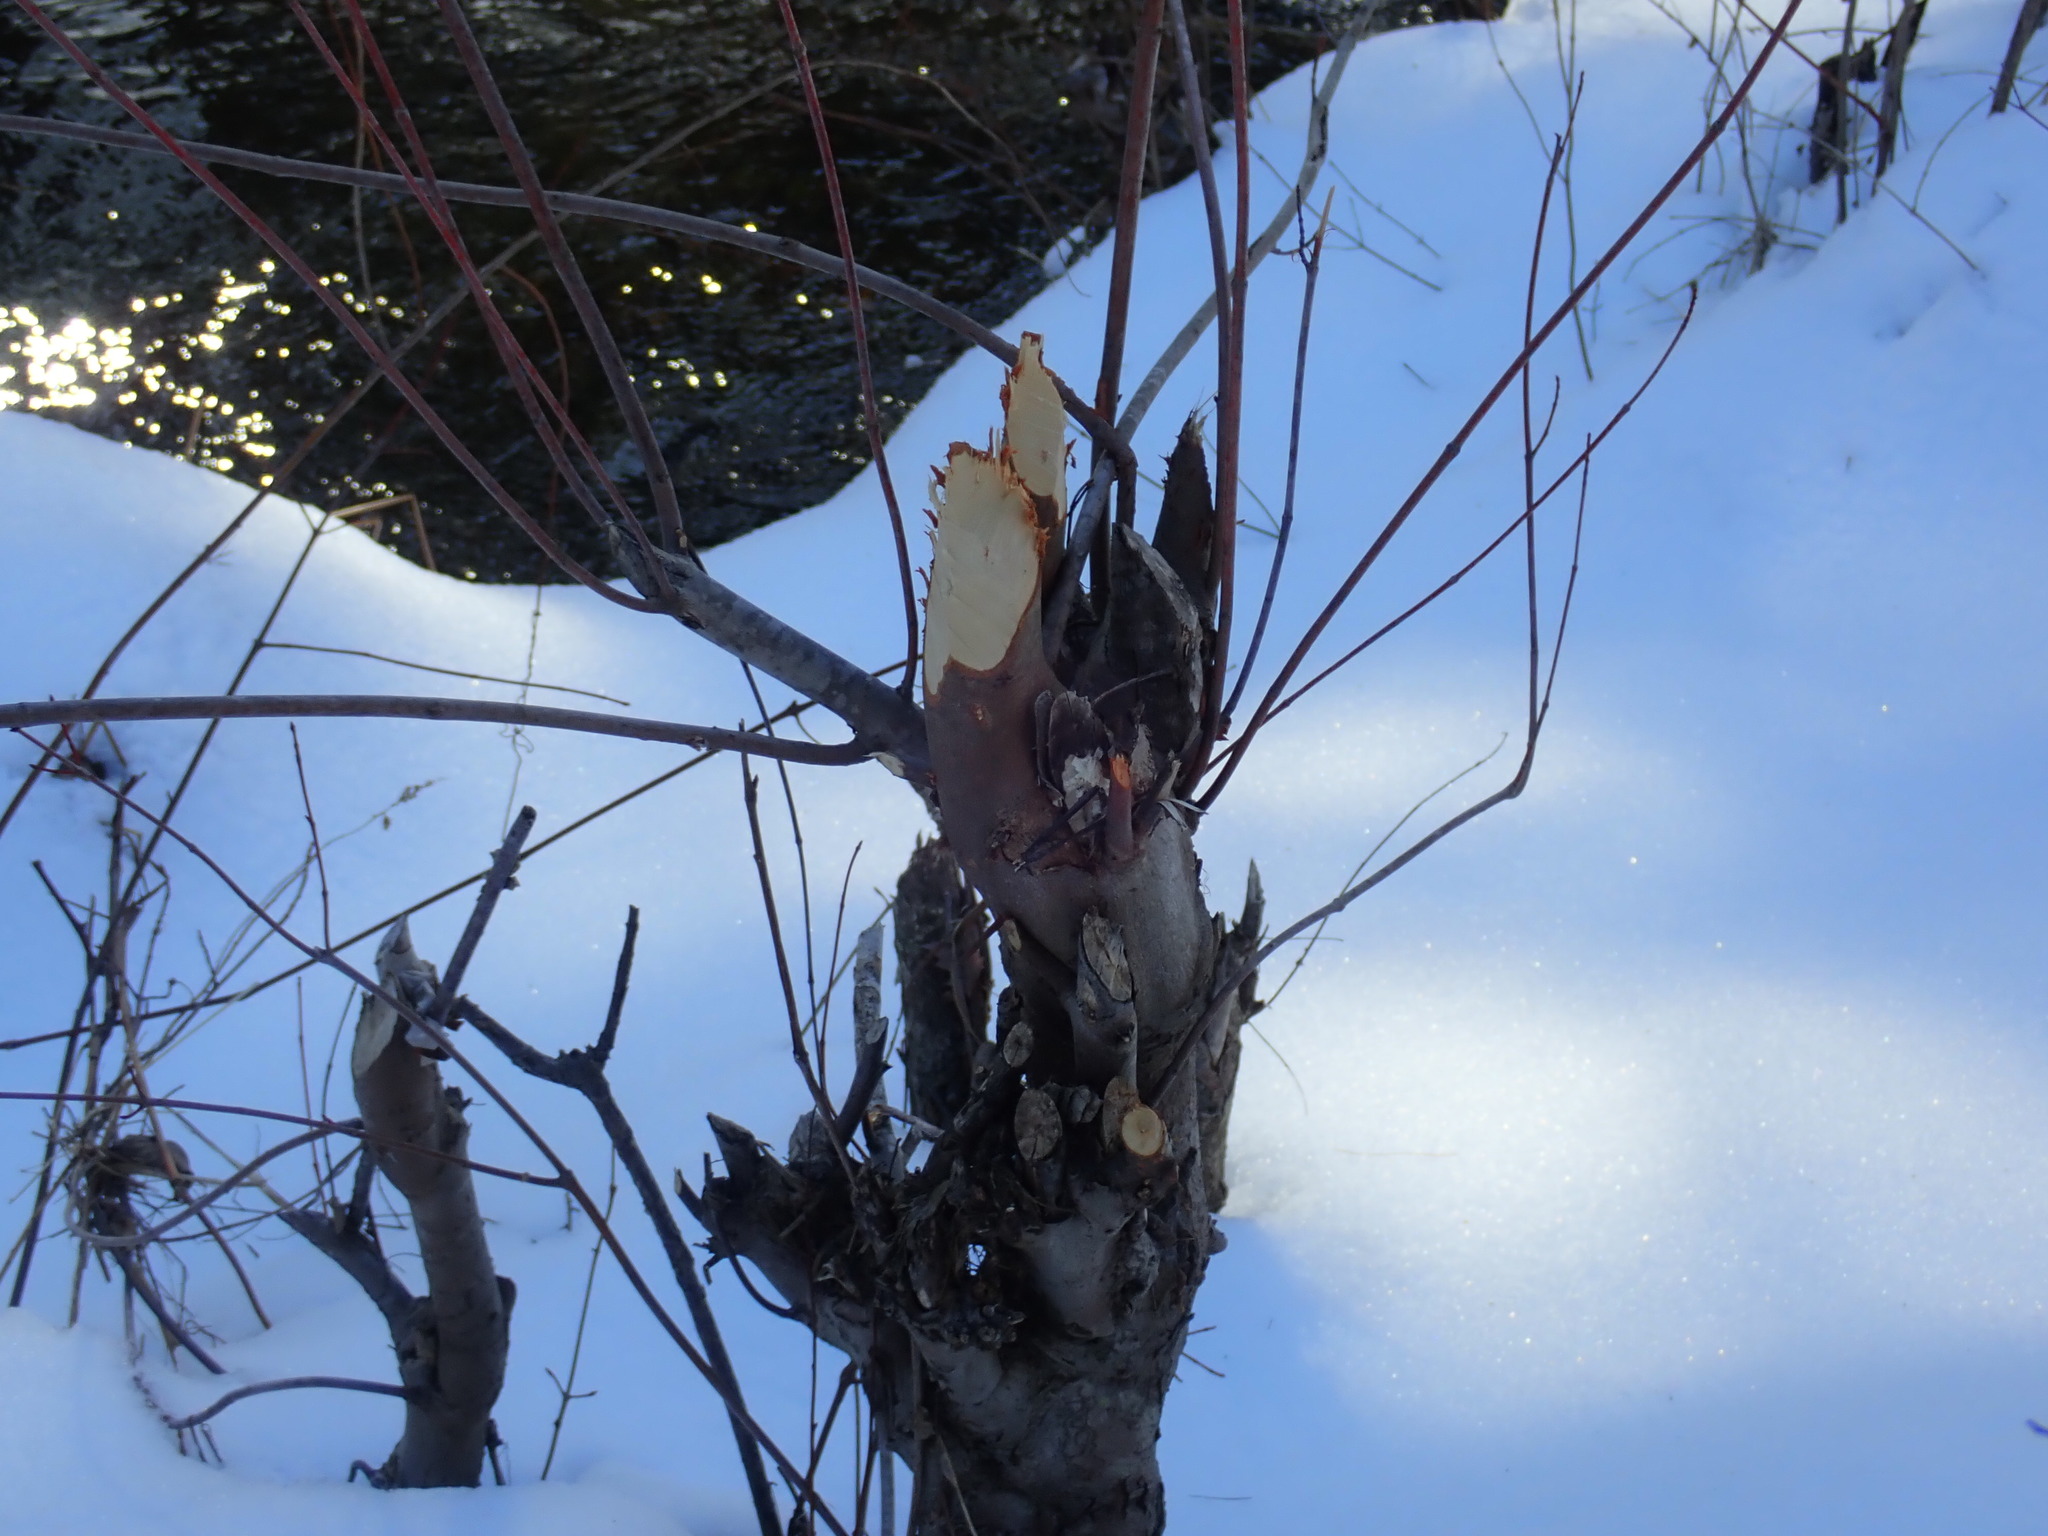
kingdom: Animalia
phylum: Chordata
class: Mammalia
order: Rodentia
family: Castoridae
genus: Castor
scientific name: Castor canadensis
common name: American beaver
